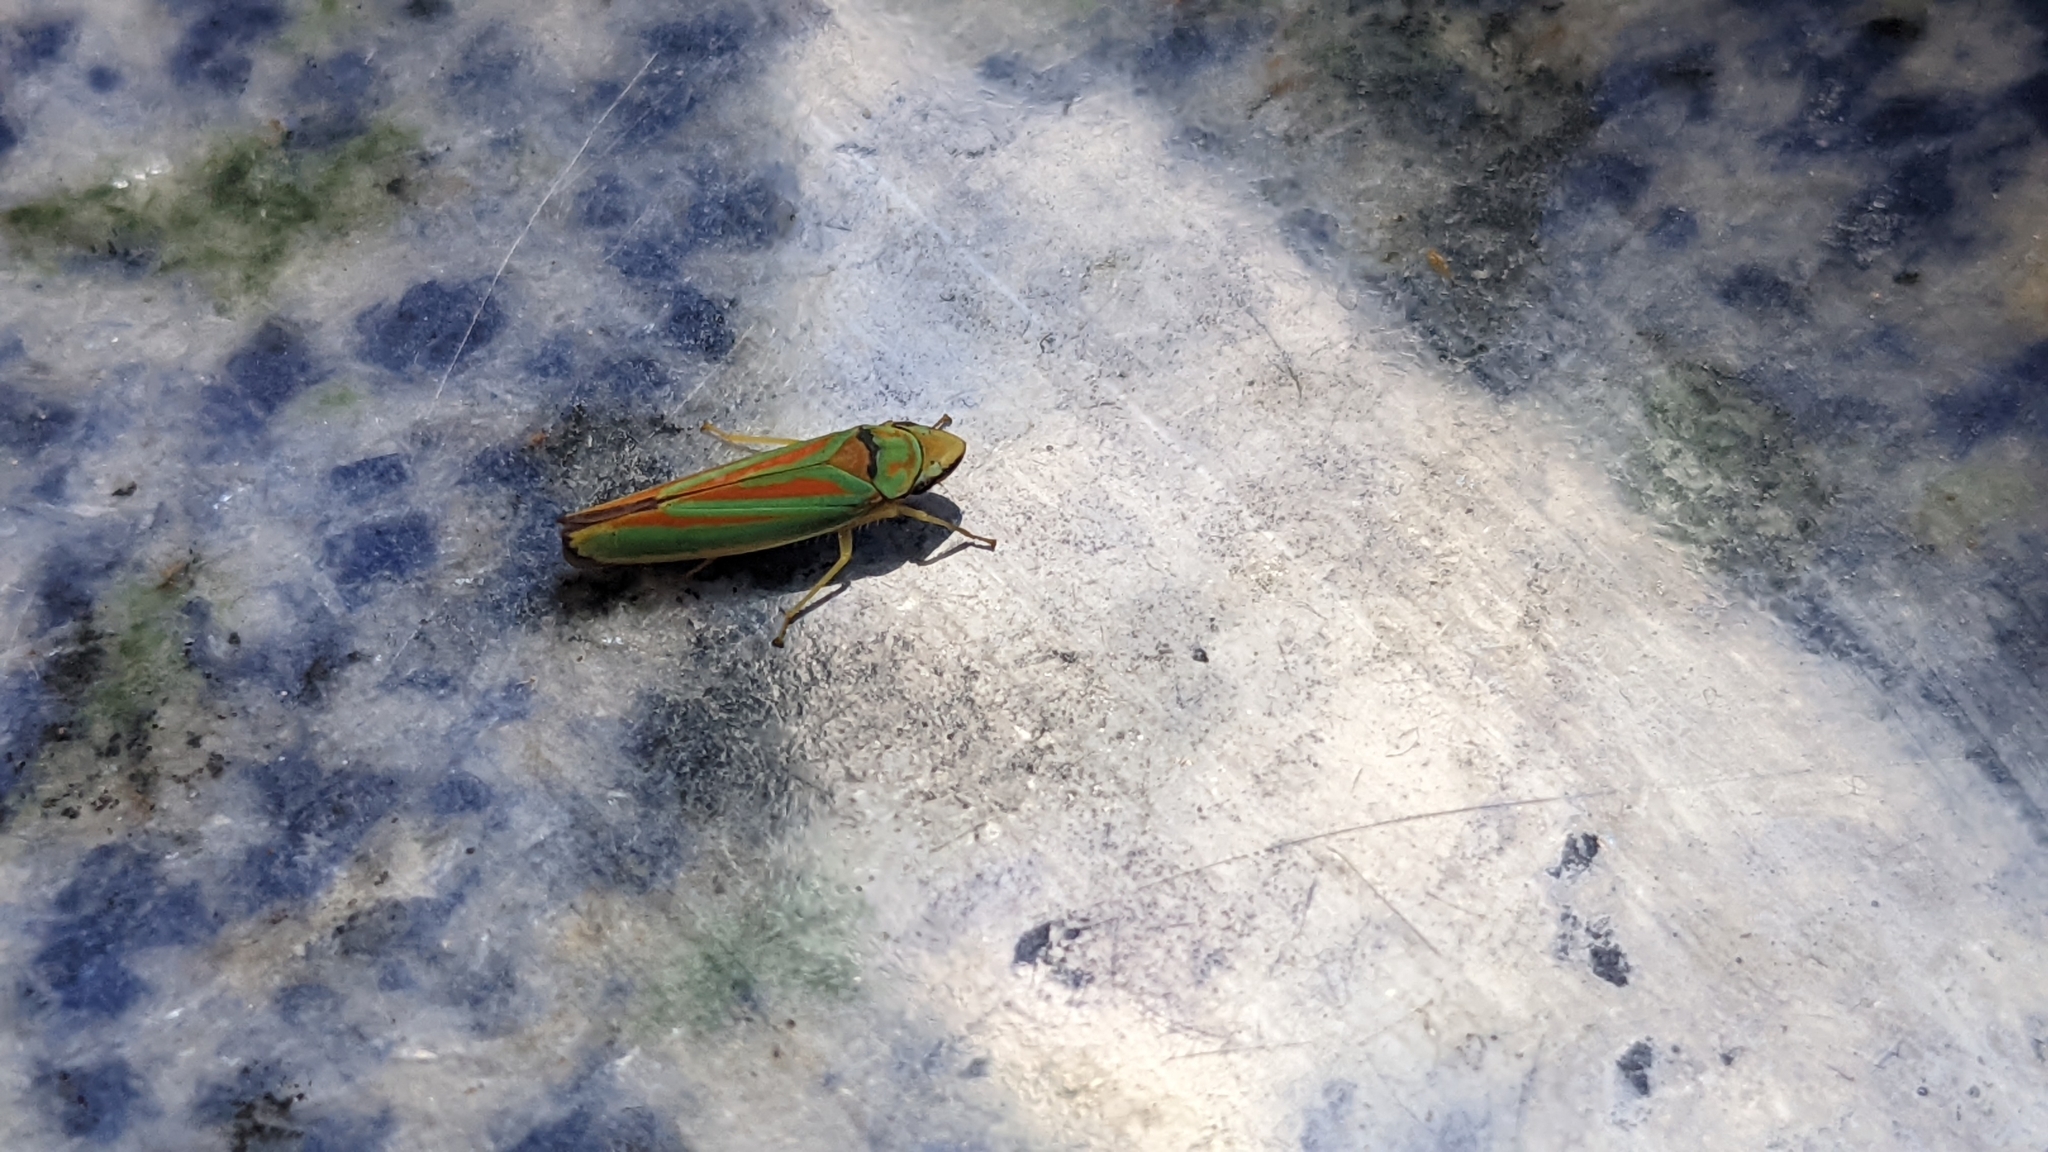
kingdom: Animalia
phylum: Arthropoda
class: Insecta
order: Hemiptera
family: Cicadellidae
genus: Graphocephala
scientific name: Graphocephala fennahi
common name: Rhododendron leafhopper
